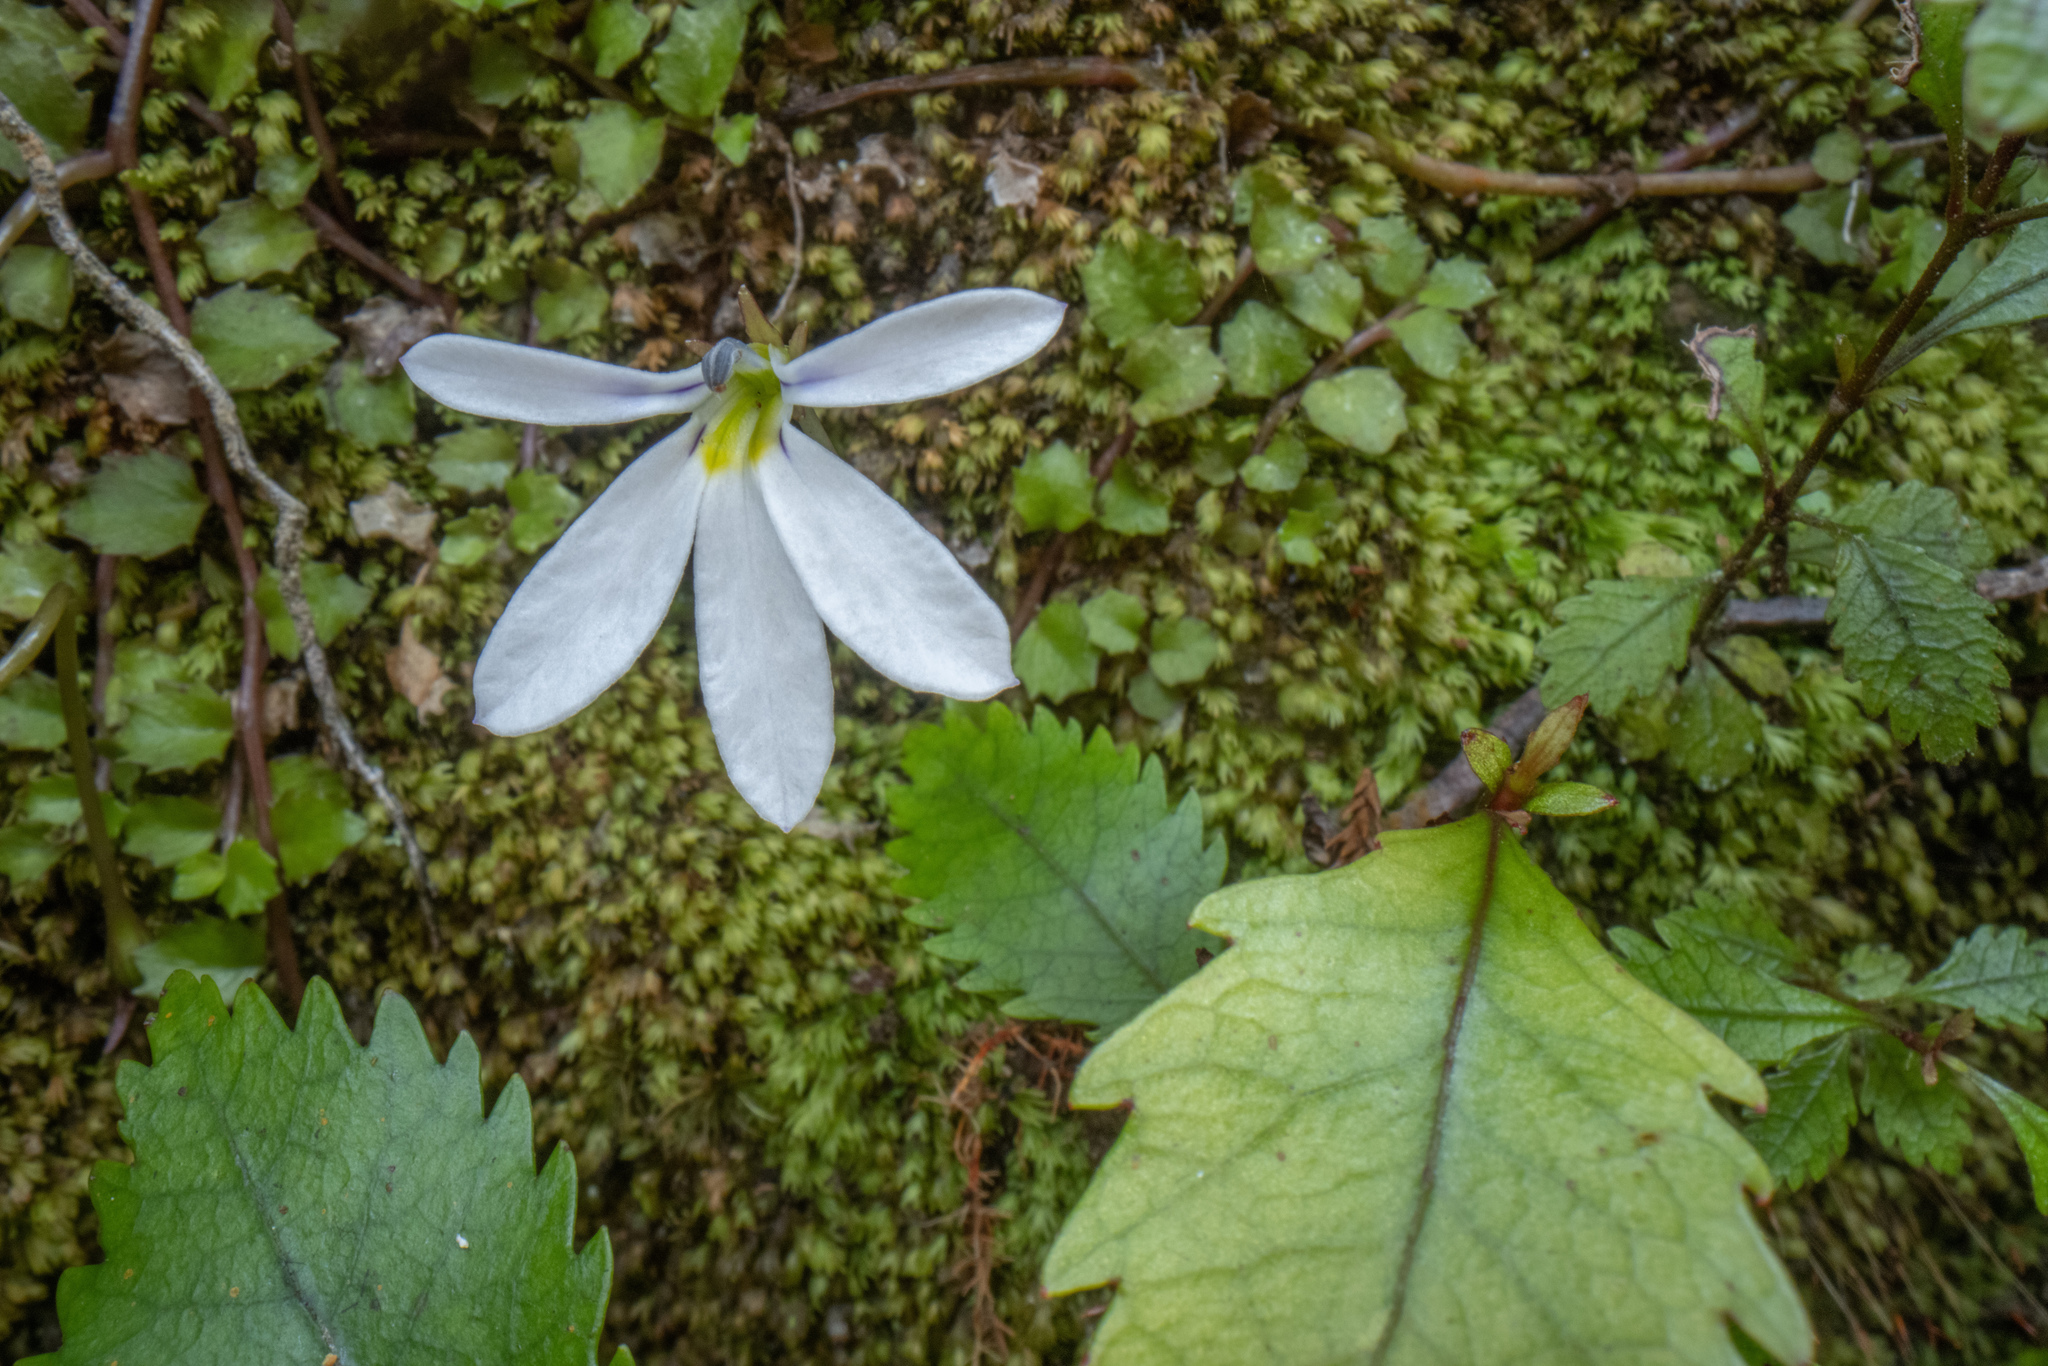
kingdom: Plantae
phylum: Tracheophyta
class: Magnoliopsida
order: Asterales
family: Campanulaceae
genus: Lobelia
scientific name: Lobelia angulata
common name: Lawn lobelia
